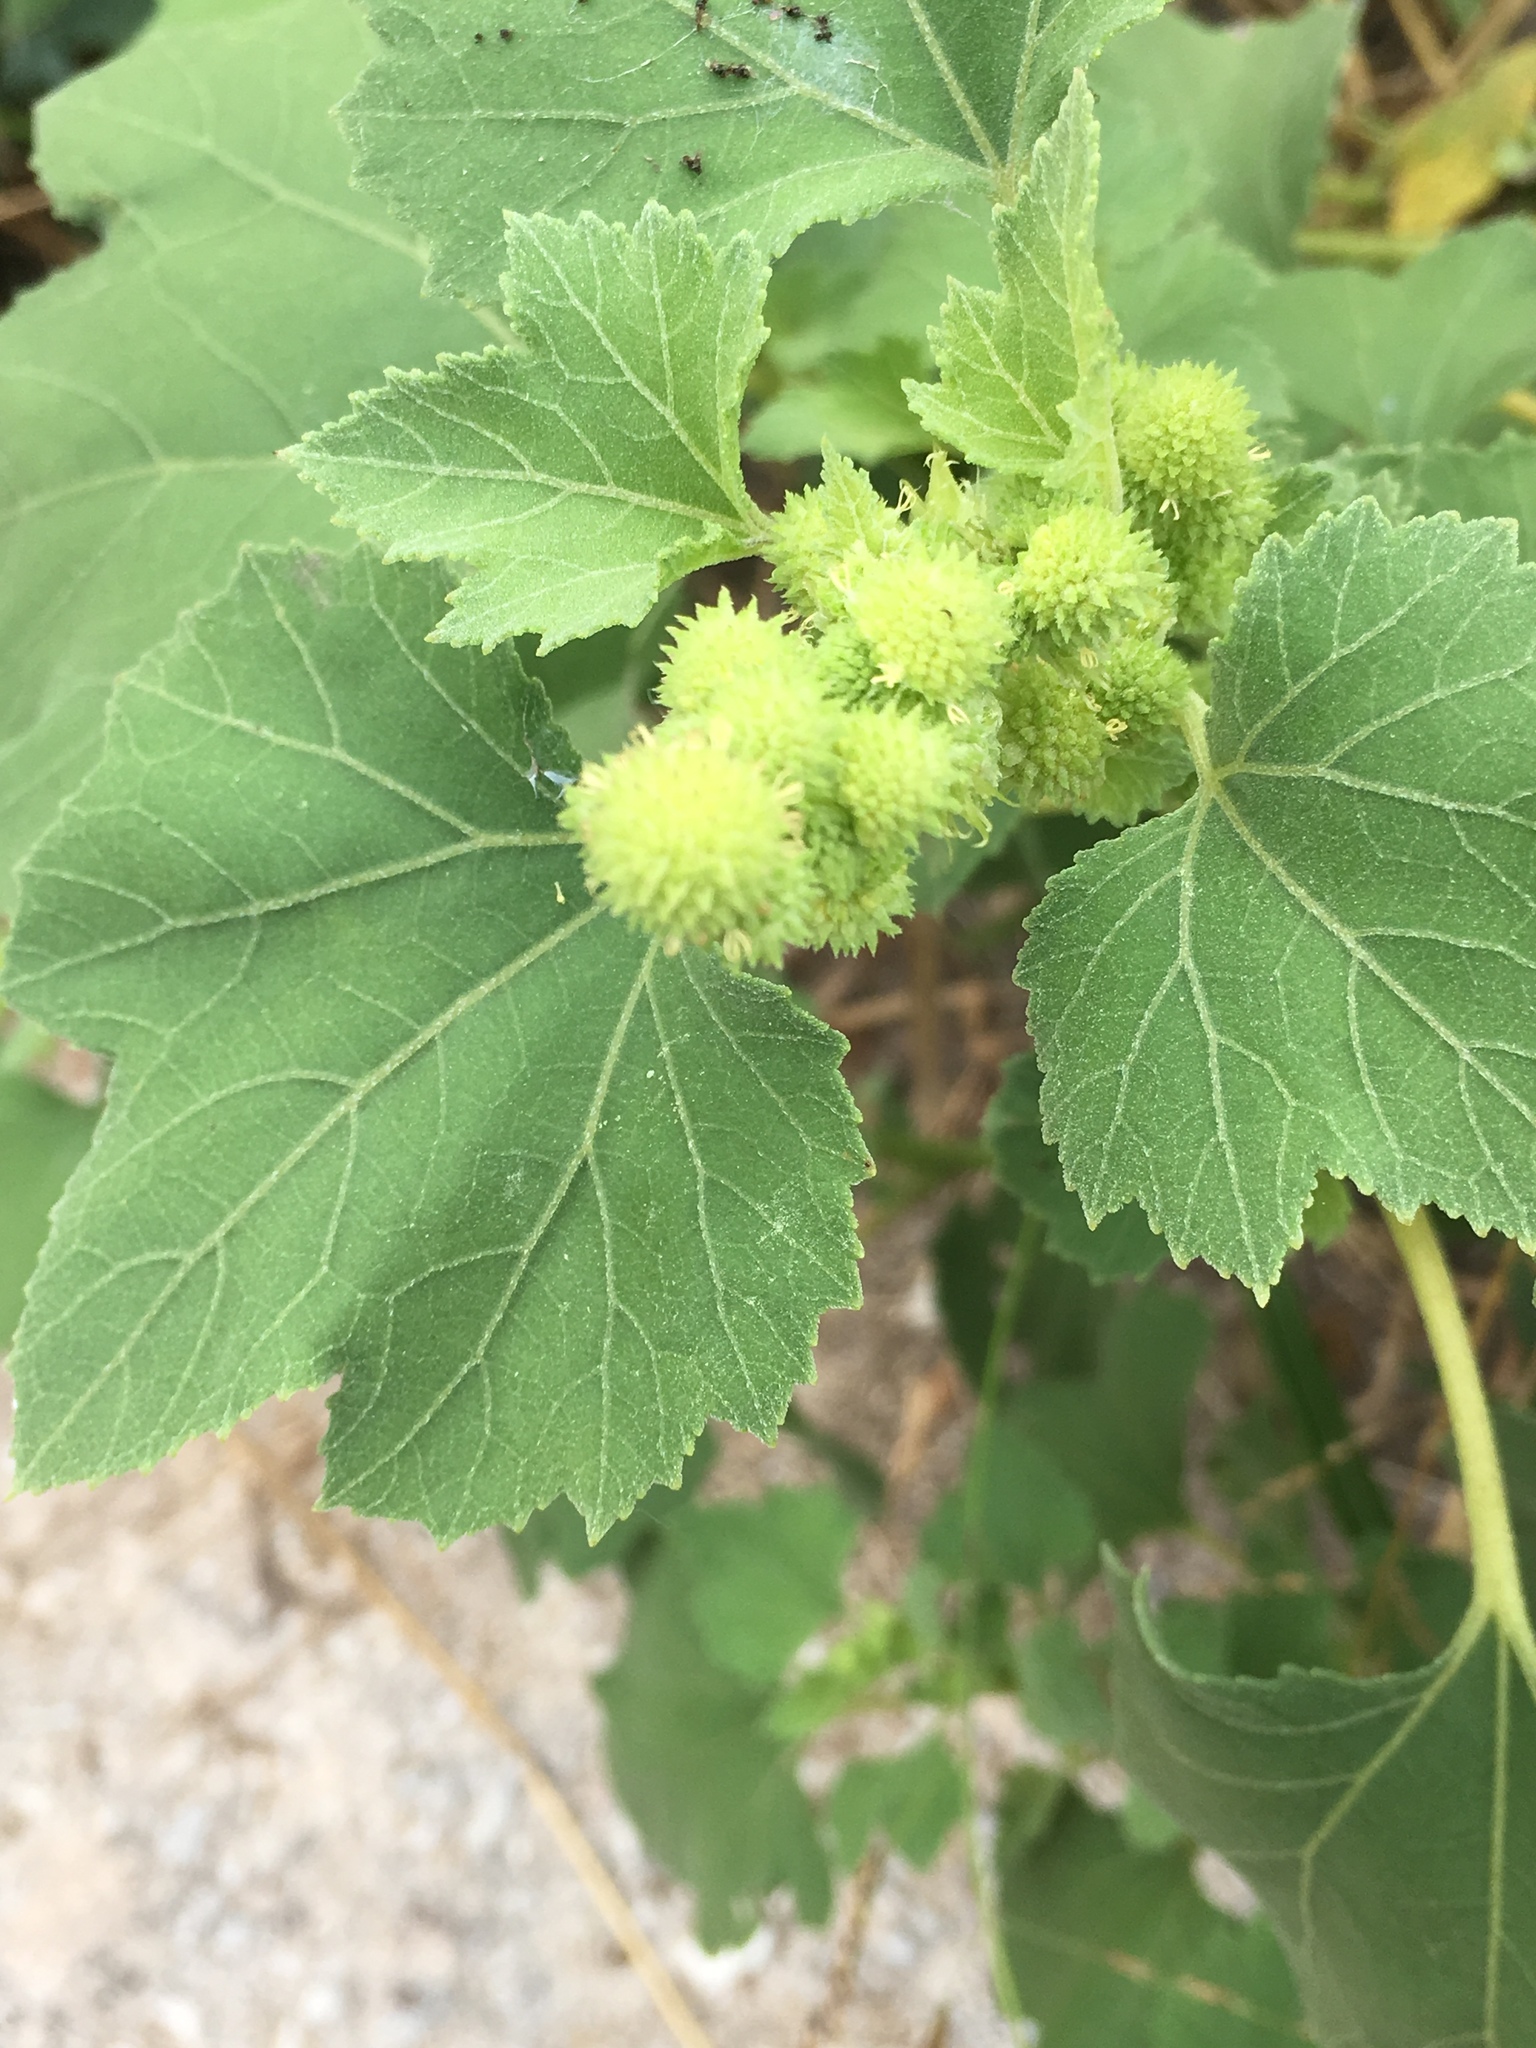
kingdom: Plantae
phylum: Tracheophyta
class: Magnoliopsida
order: Asterales
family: Asteraceae
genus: Xanthium
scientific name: Xanthium strumarium
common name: Rough cocklebur
